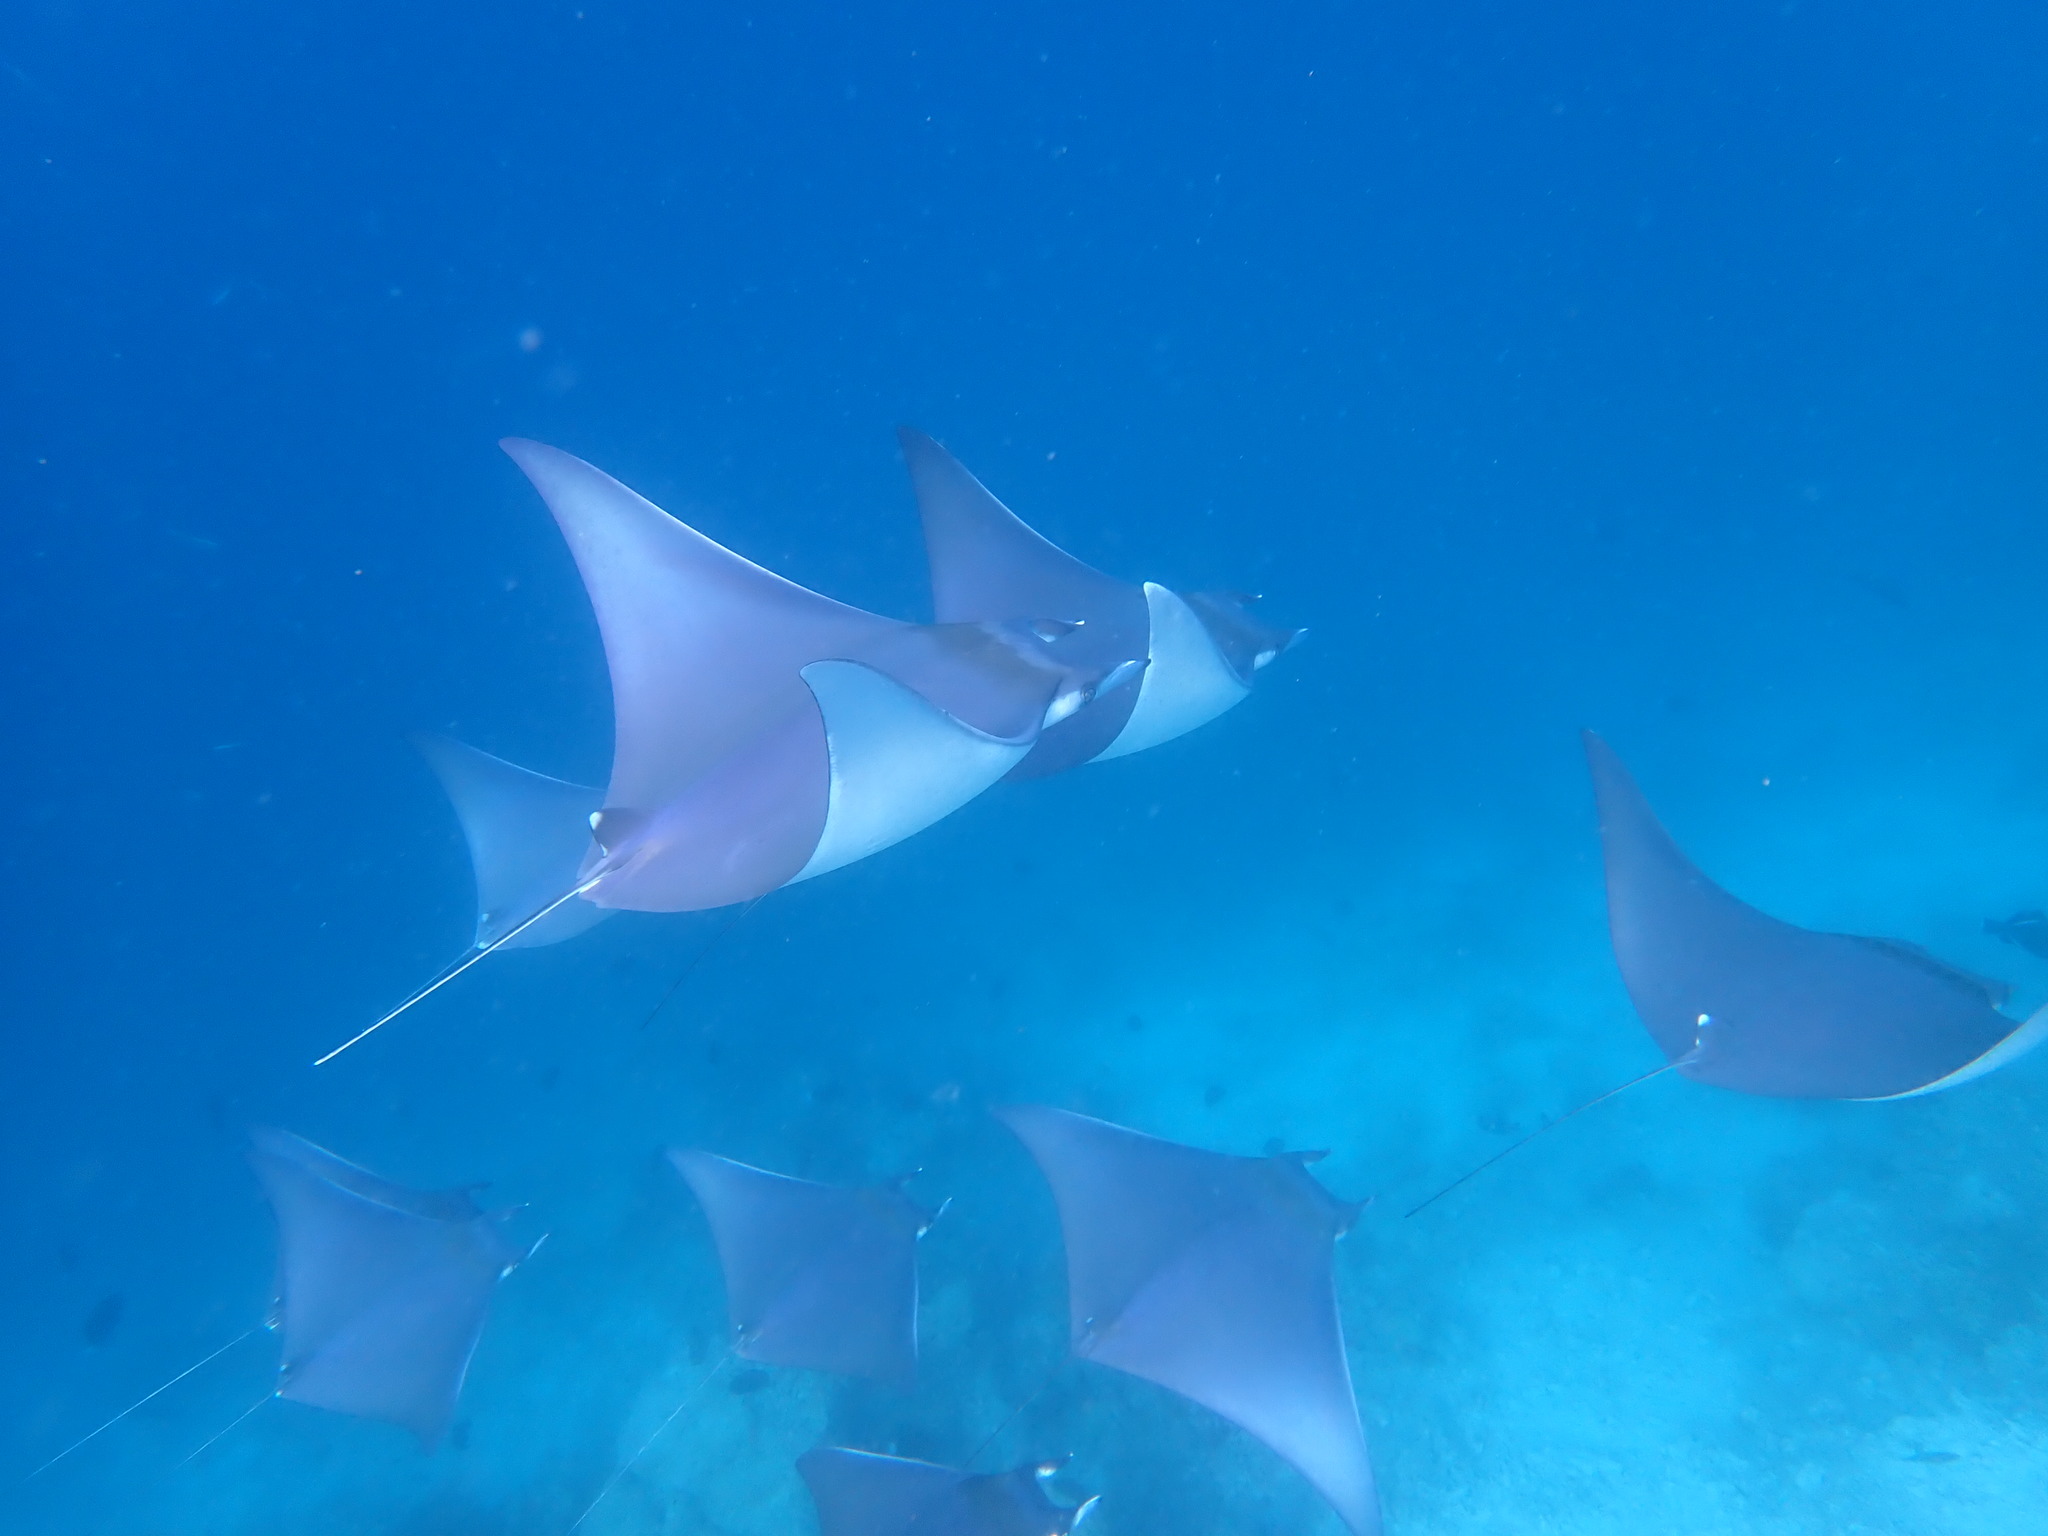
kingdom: Animalia
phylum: Chordata
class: Elasmobranchii
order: Myliobatiformes
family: Myliobatidae
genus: Mobula
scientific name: Mobula kuhlii
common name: Shortfin devil ray
